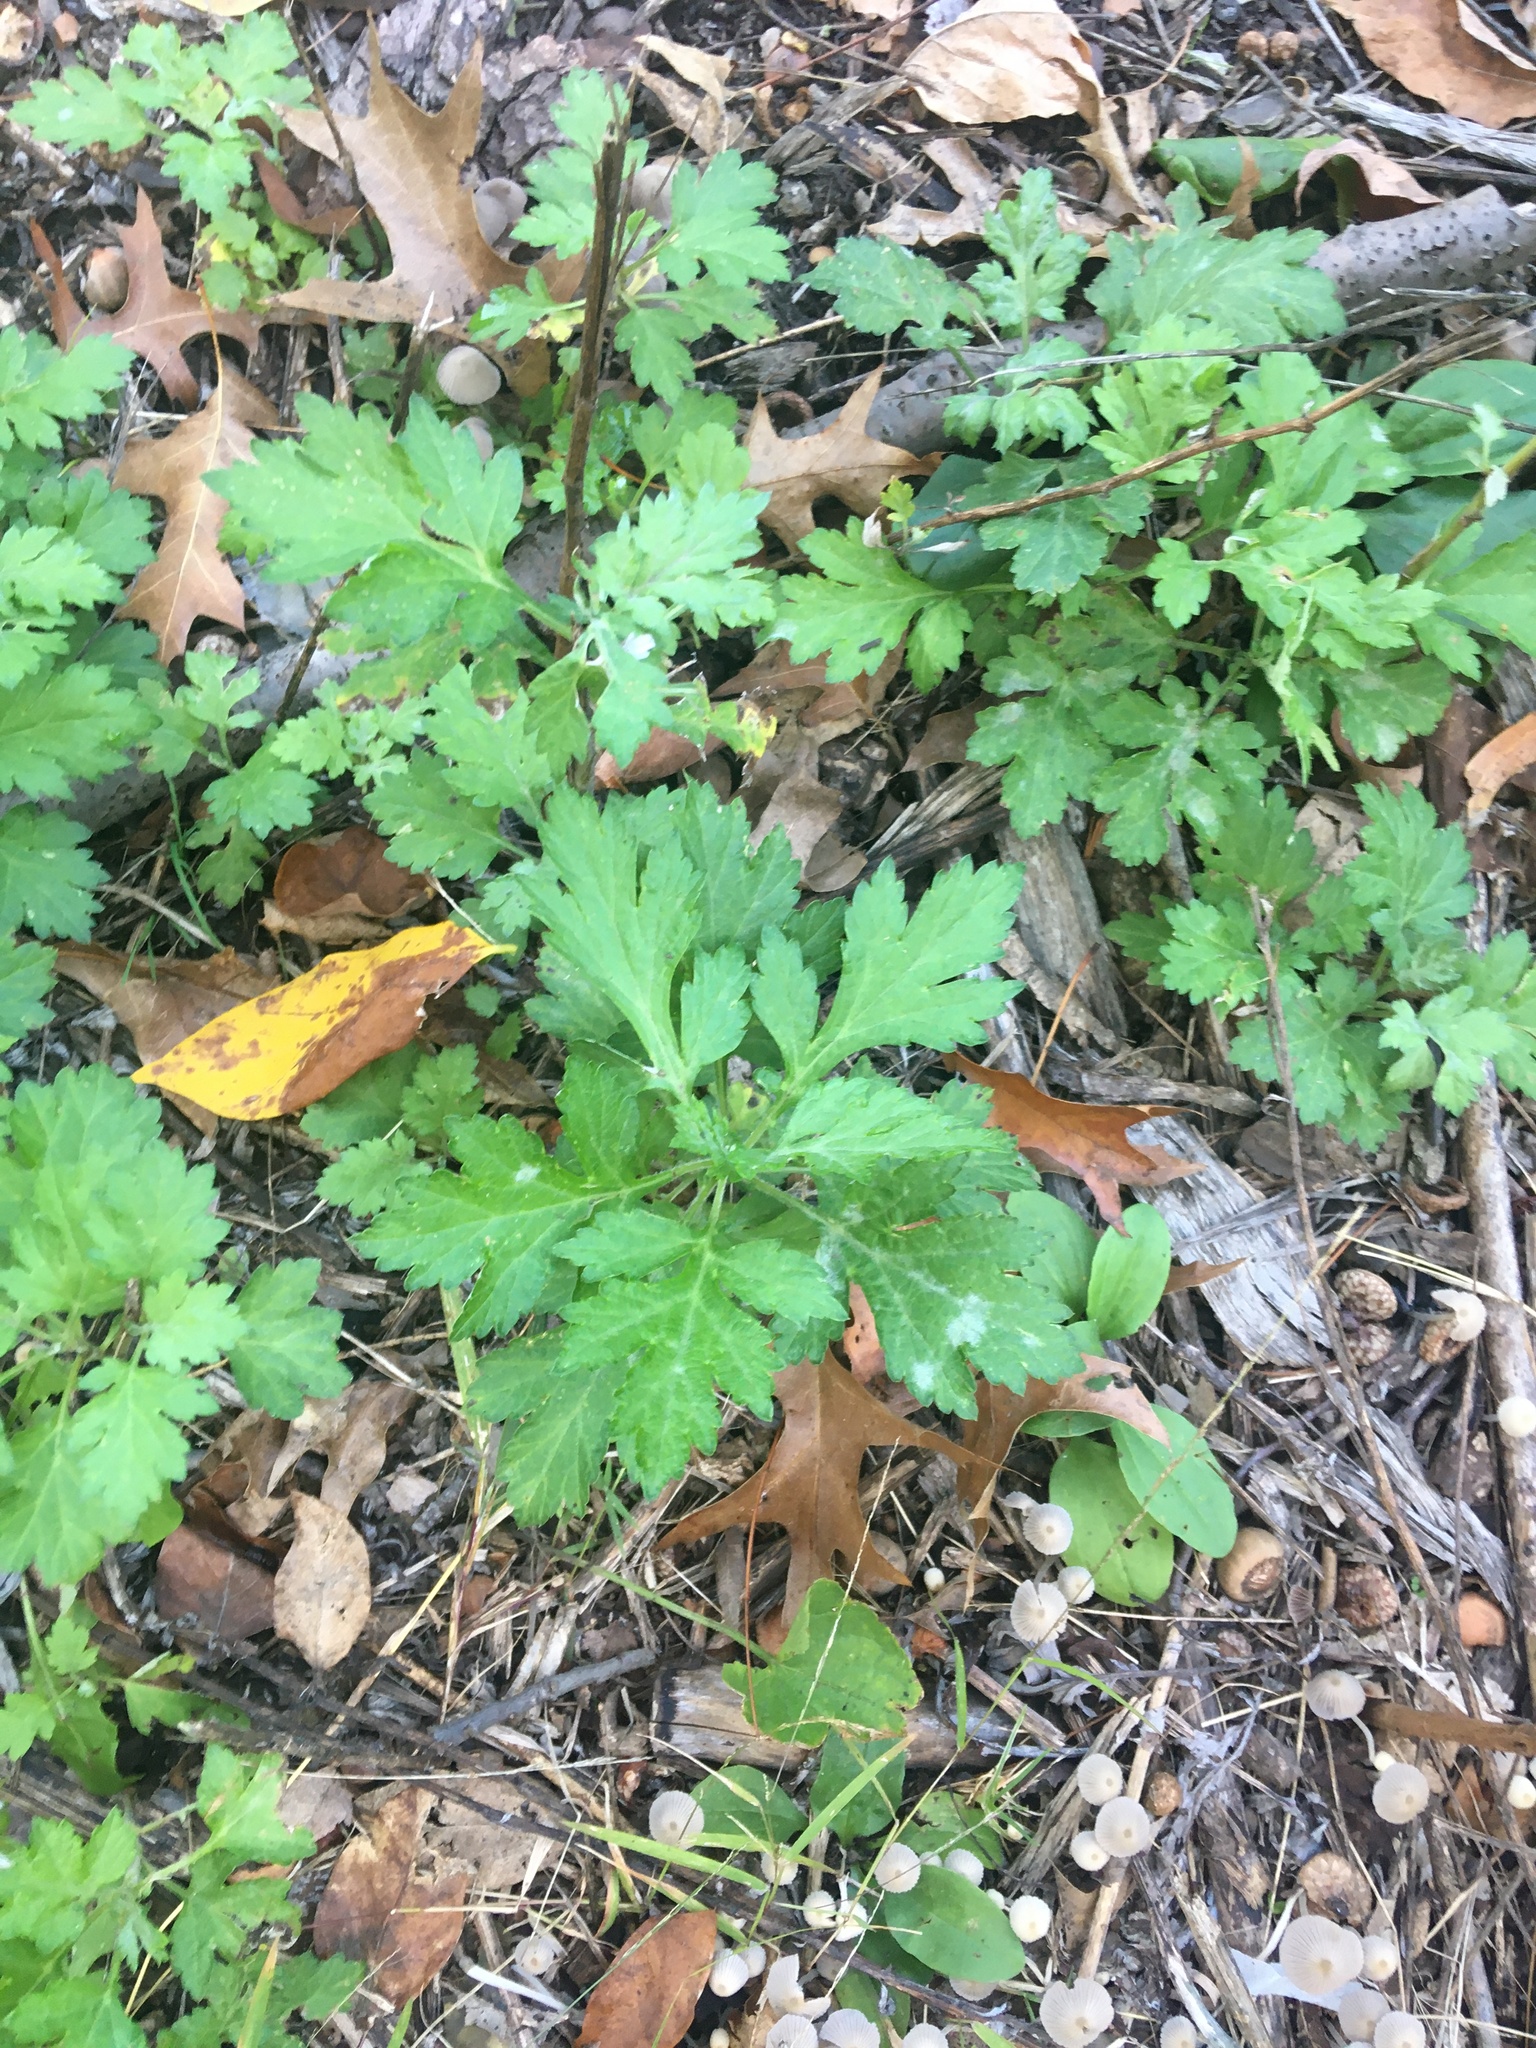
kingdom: Plantae
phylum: Tracheophyta
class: Magnoliopsida
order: Asterales
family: Asteraceae
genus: Artemisia
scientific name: Artemisia vulgaris
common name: Mugwort
